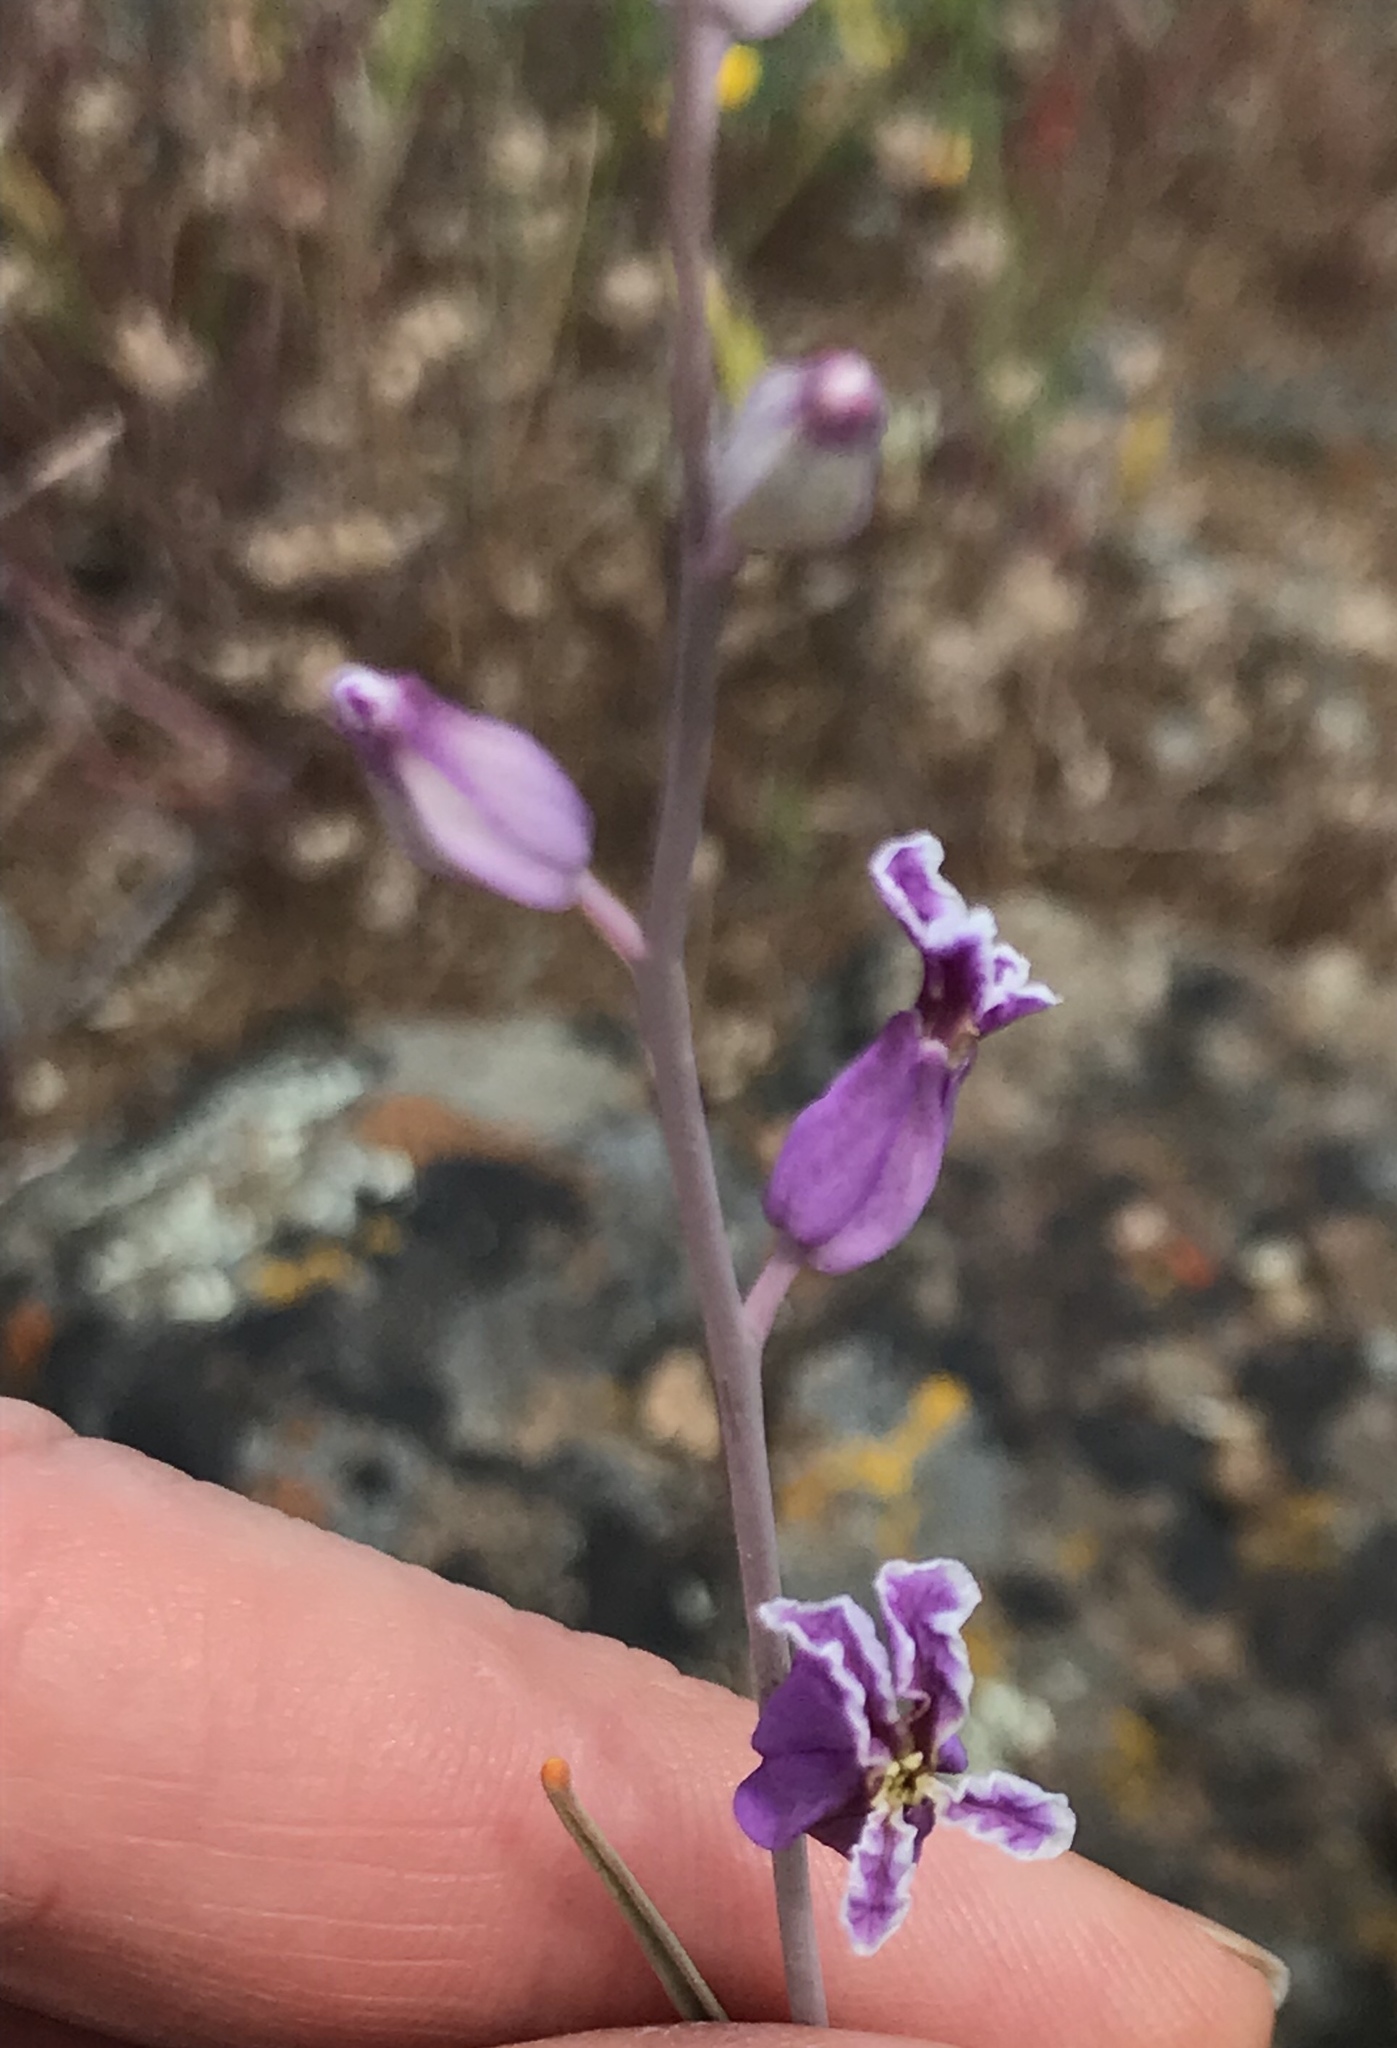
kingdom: Plantae
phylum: Tracheophyta
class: Magnoliopsida
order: Brassicales
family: Brassicaceae
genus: Streptanthus
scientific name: Streptanthus glandulosus
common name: Jewel-flower
